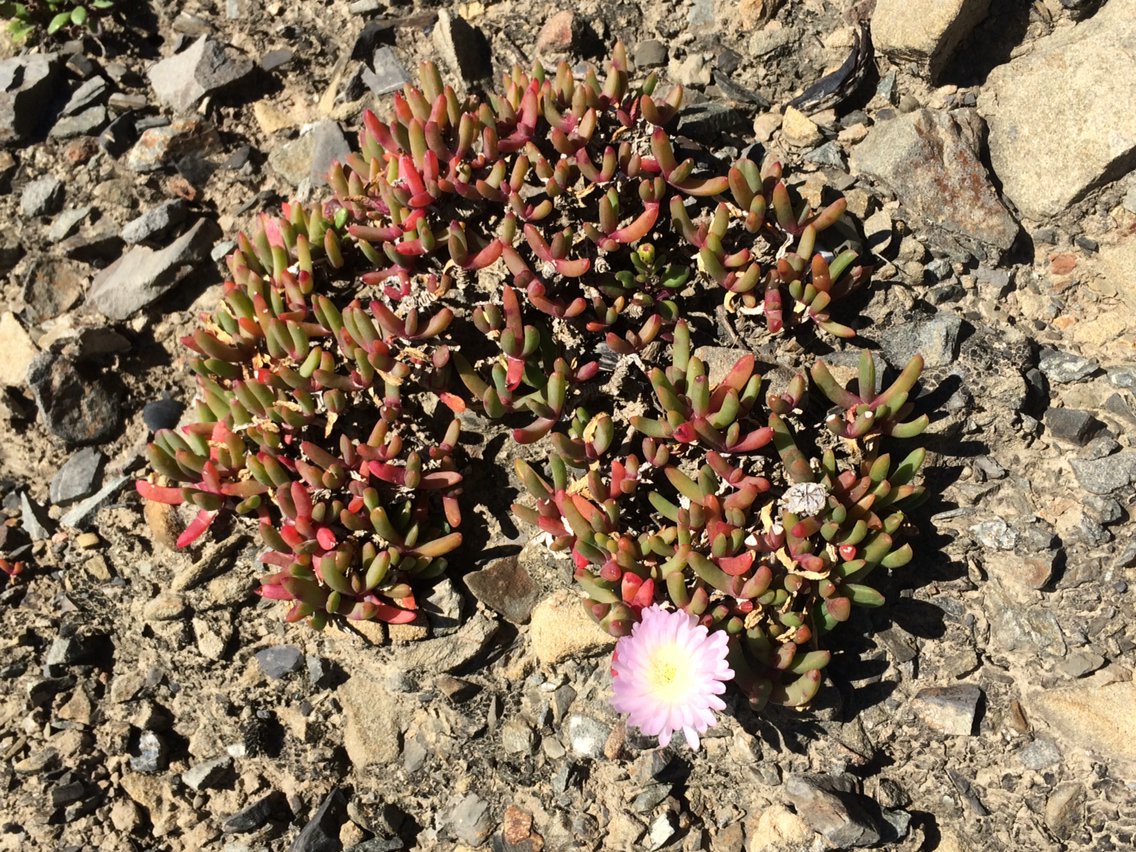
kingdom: Plantae
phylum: Tracheophyta
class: Magnoliopsida
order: Caryophyllales
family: Aizoaceae
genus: Disphyma
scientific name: Disphyma australe
